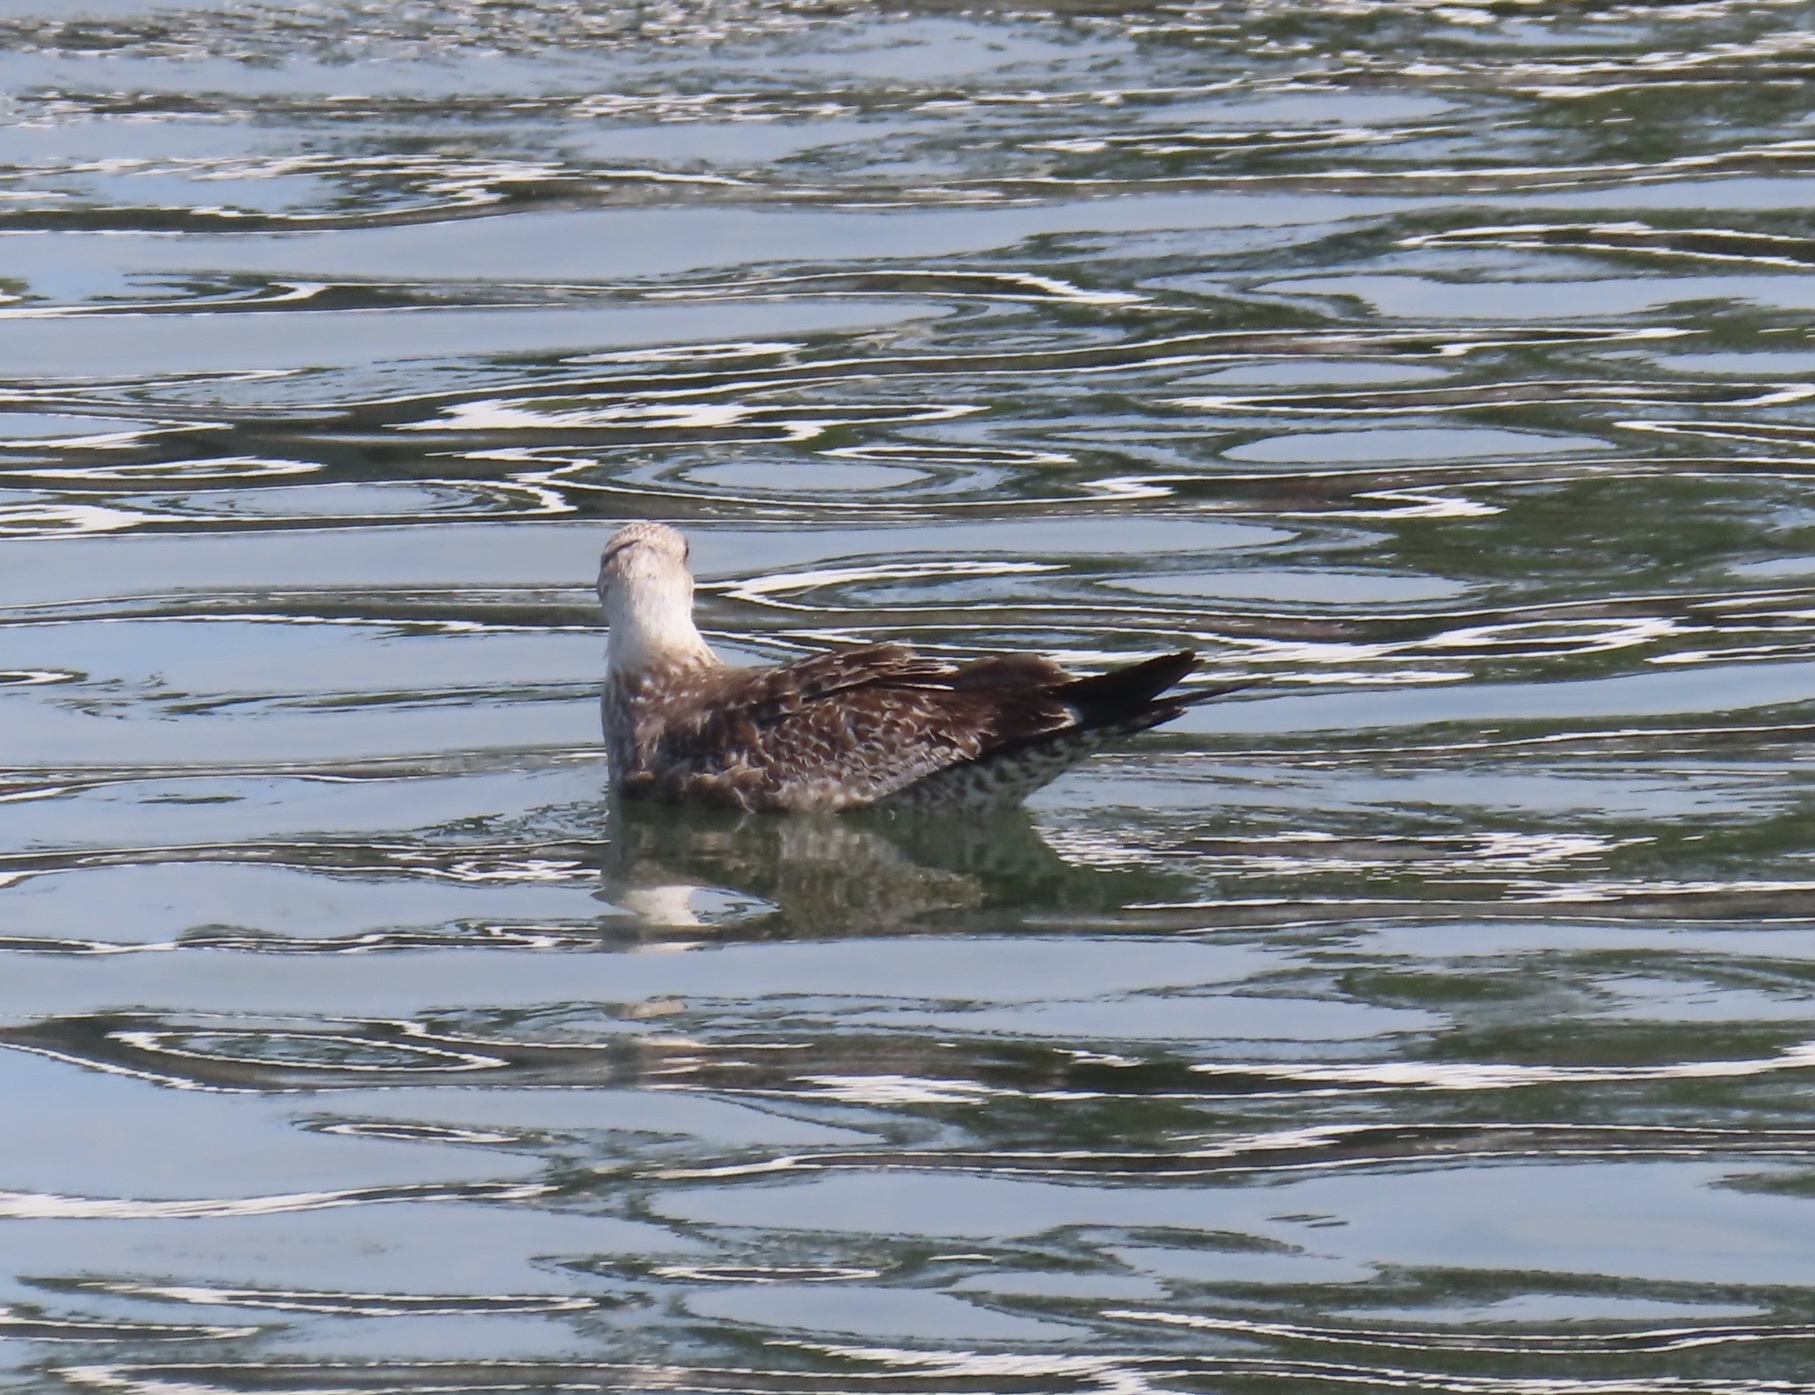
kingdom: Animalia
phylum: Chordata
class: Aves
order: Charadriiformes
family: Laridae
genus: Larus
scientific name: Larus dominicanus
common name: Kelp gull
